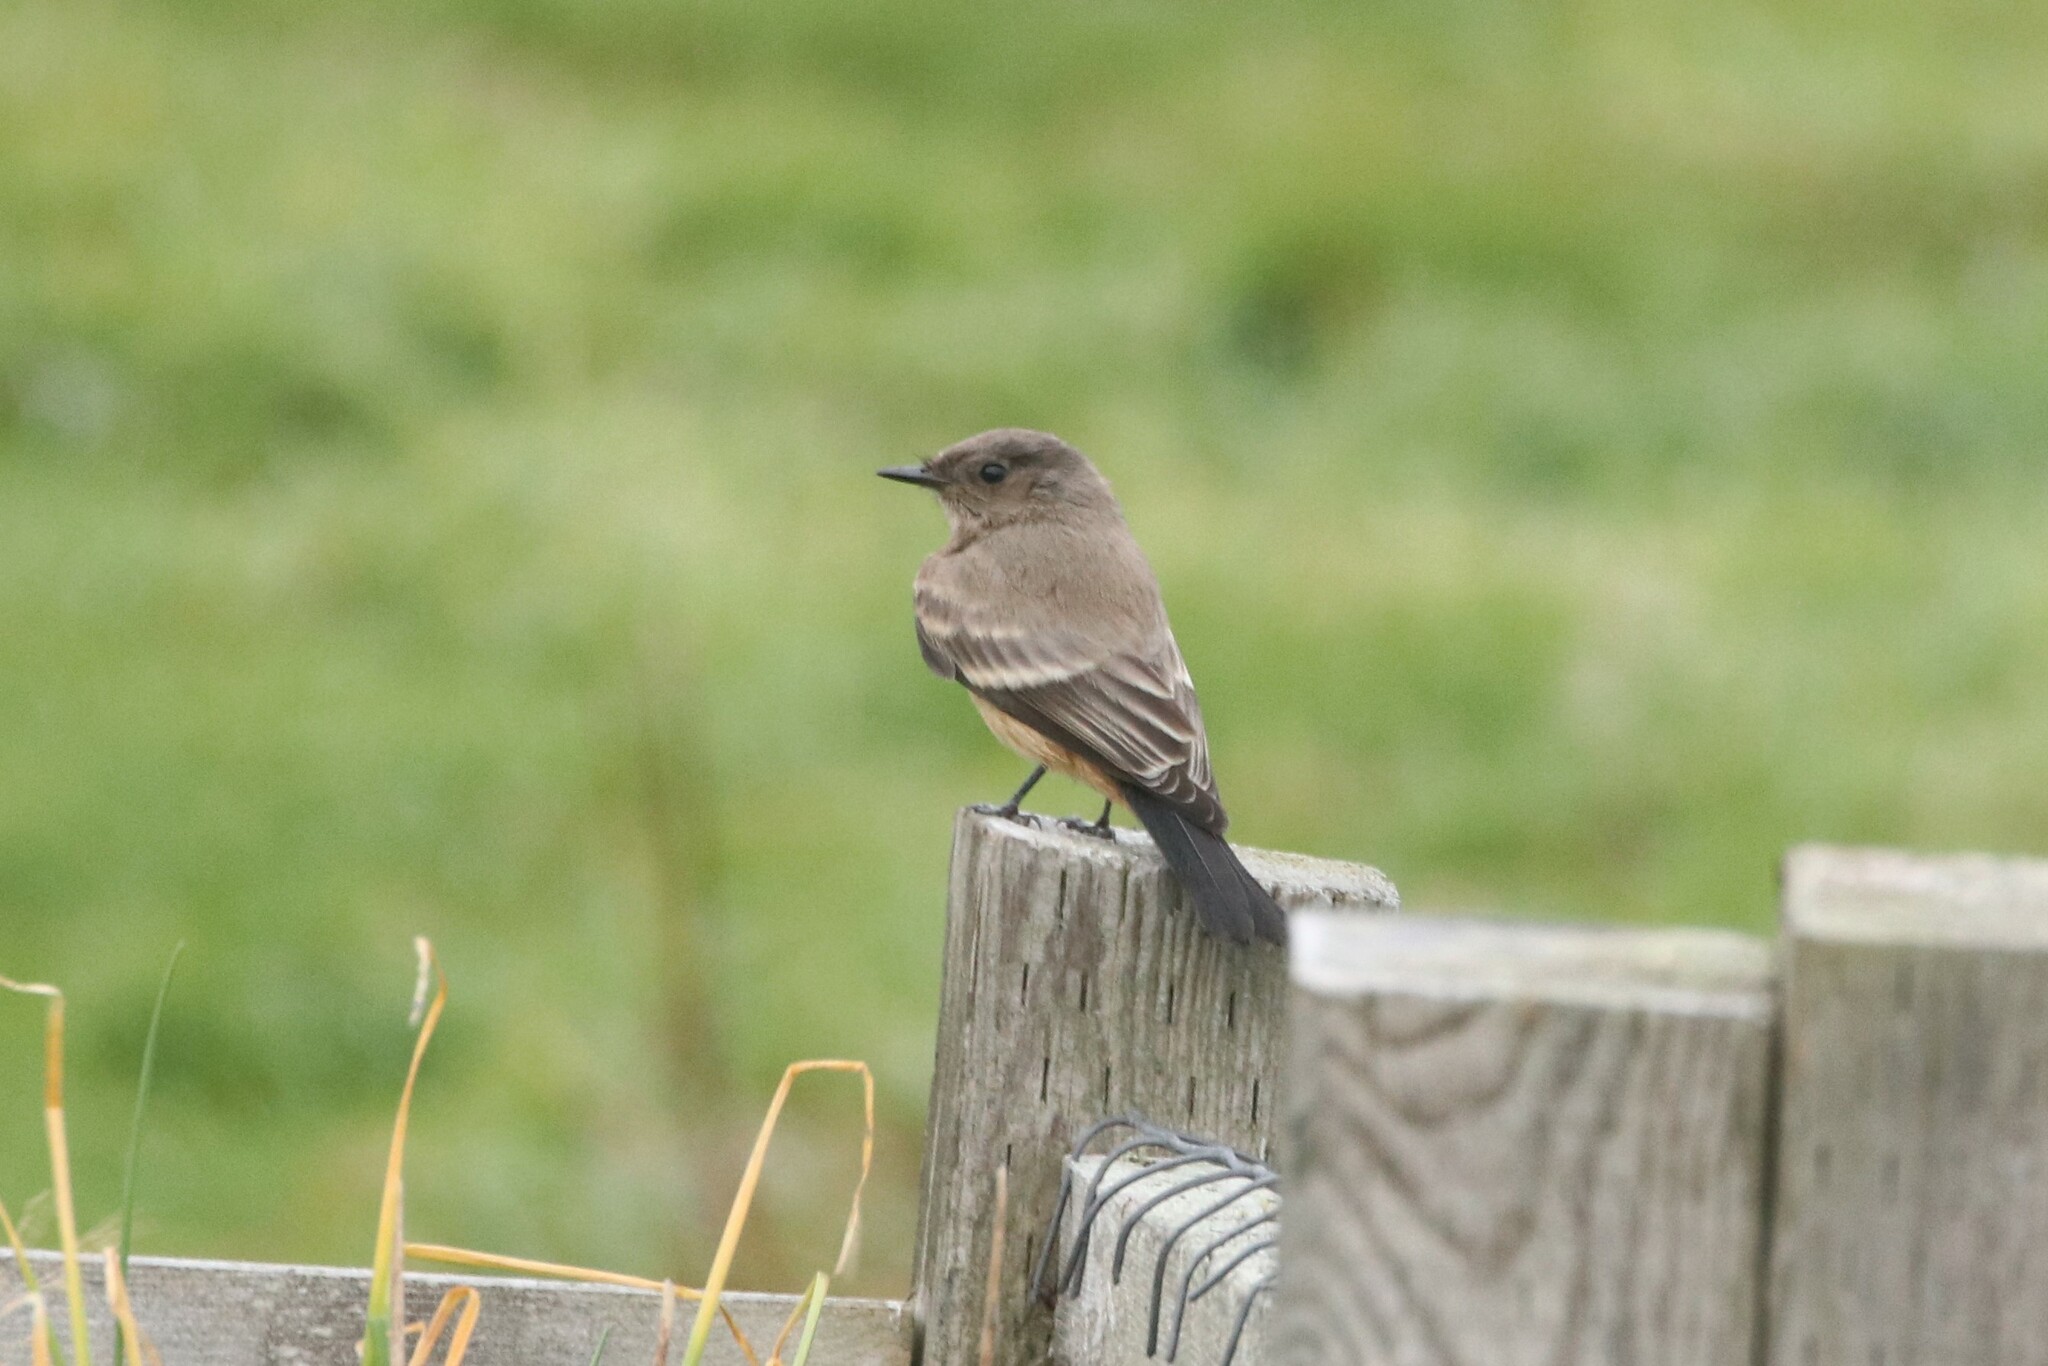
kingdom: Animalia
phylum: Chordata
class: Aves
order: Passeriformes
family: Tyrannidae
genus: Sayornis
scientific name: Sayornis saya
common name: Say's phoebe
